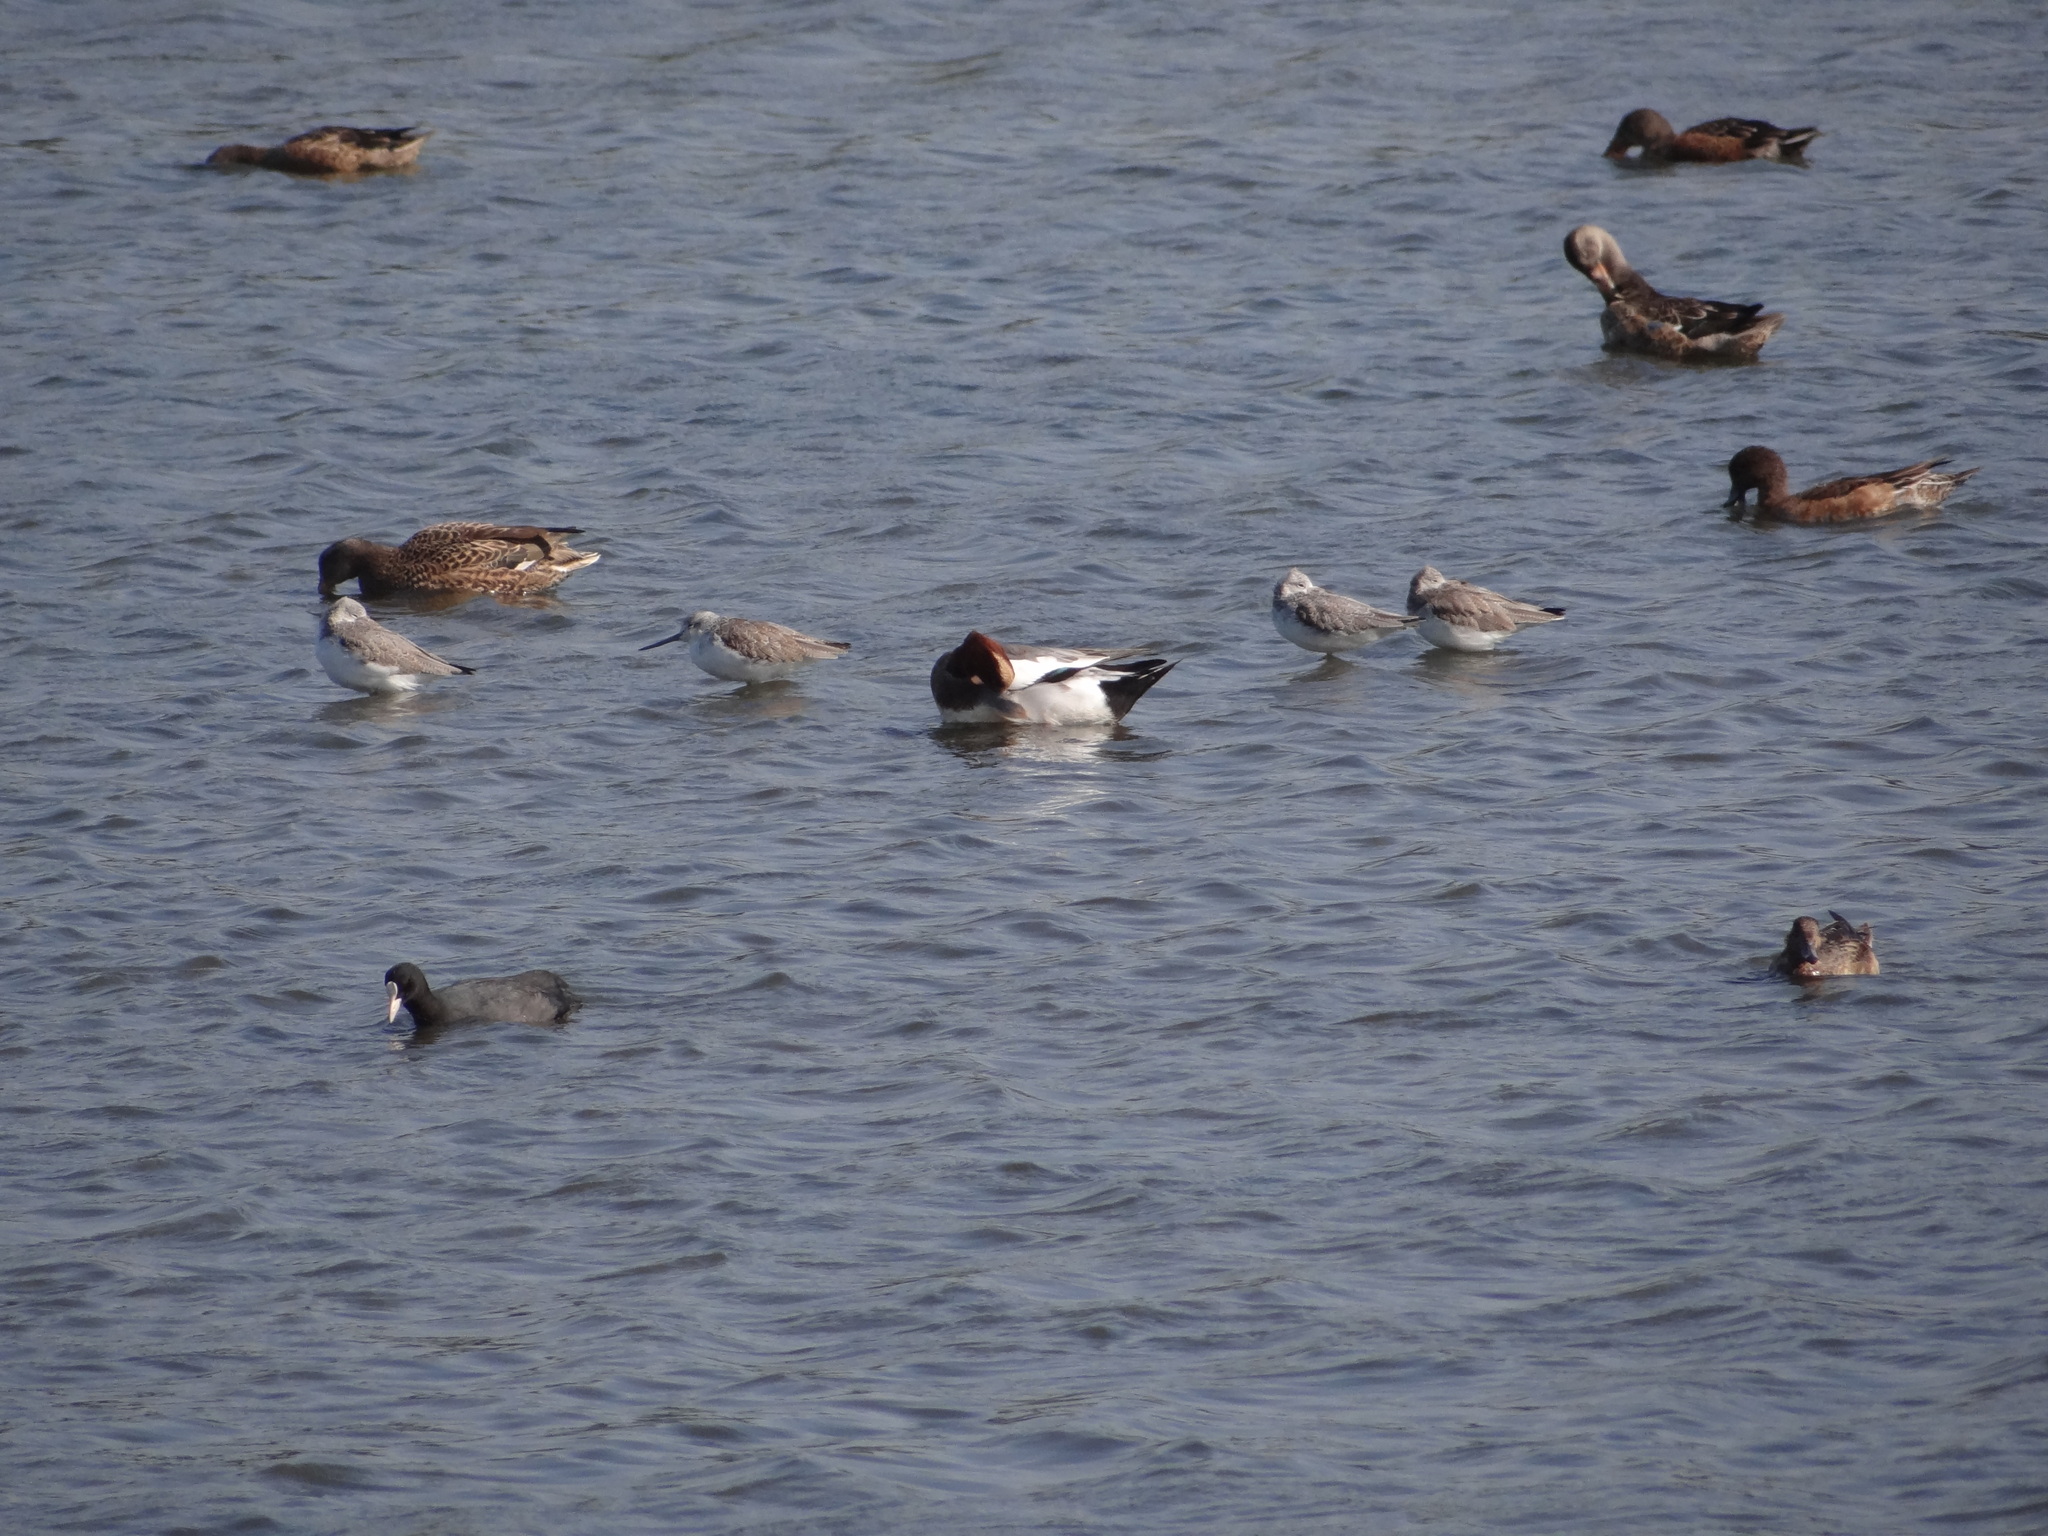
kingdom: Animalia
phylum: Chordata
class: Aves
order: Charadriiformes
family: Scolopacidae
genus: Tringa
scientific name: Tringa nebularia
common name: Common greenshank
